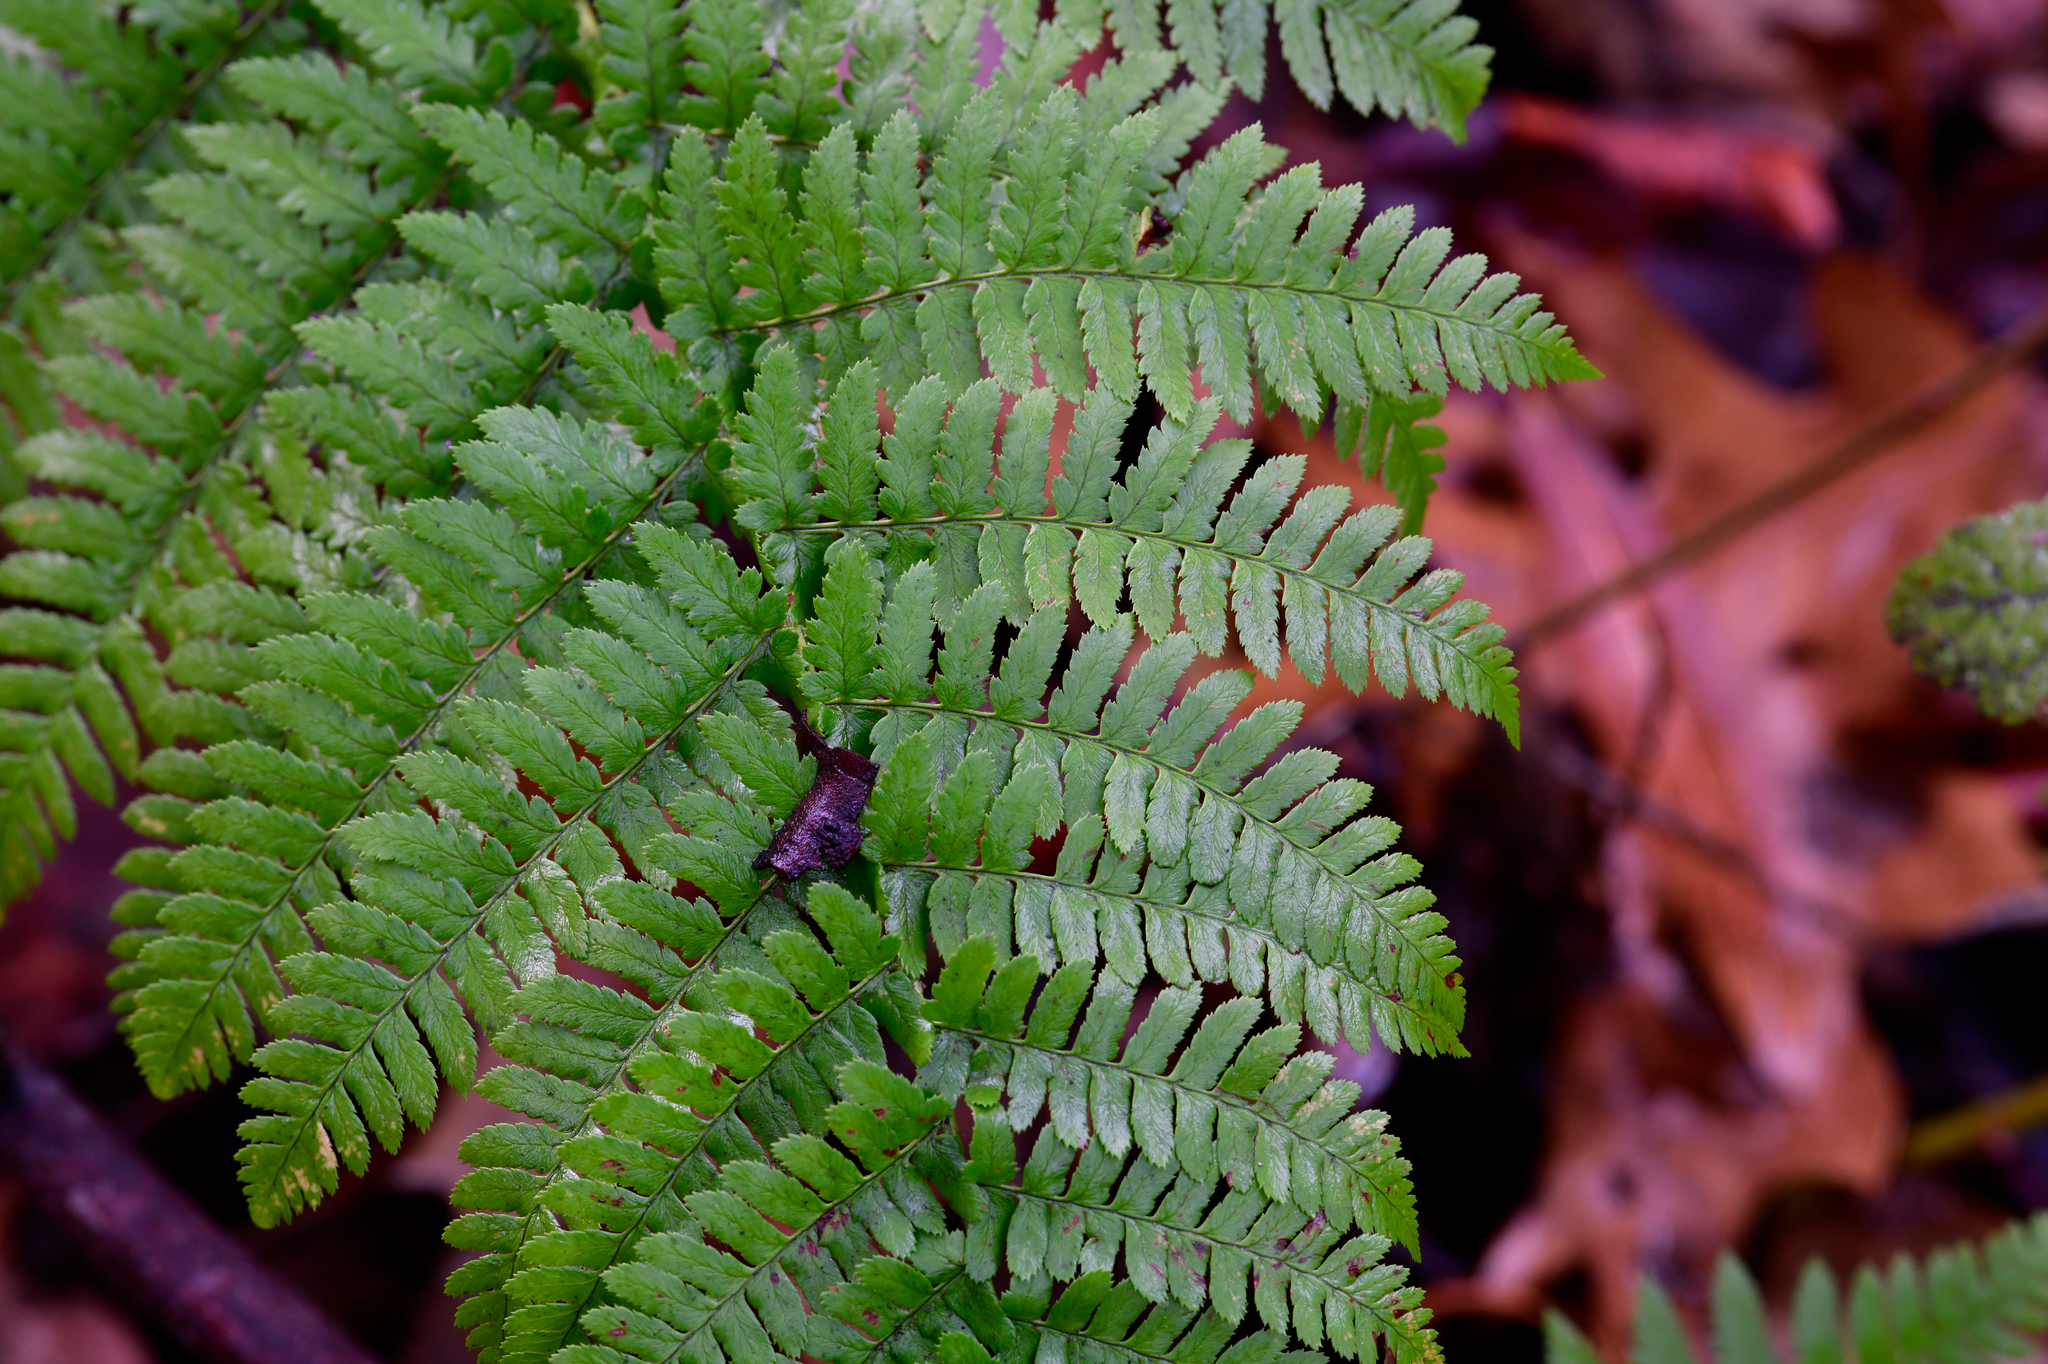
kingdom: Plantae
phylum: Tracheophyta
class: Polypodiopsida
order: Polypodiales
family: Dryopteridaceae
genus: Dryopteris
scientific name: Dryopteris arguta
